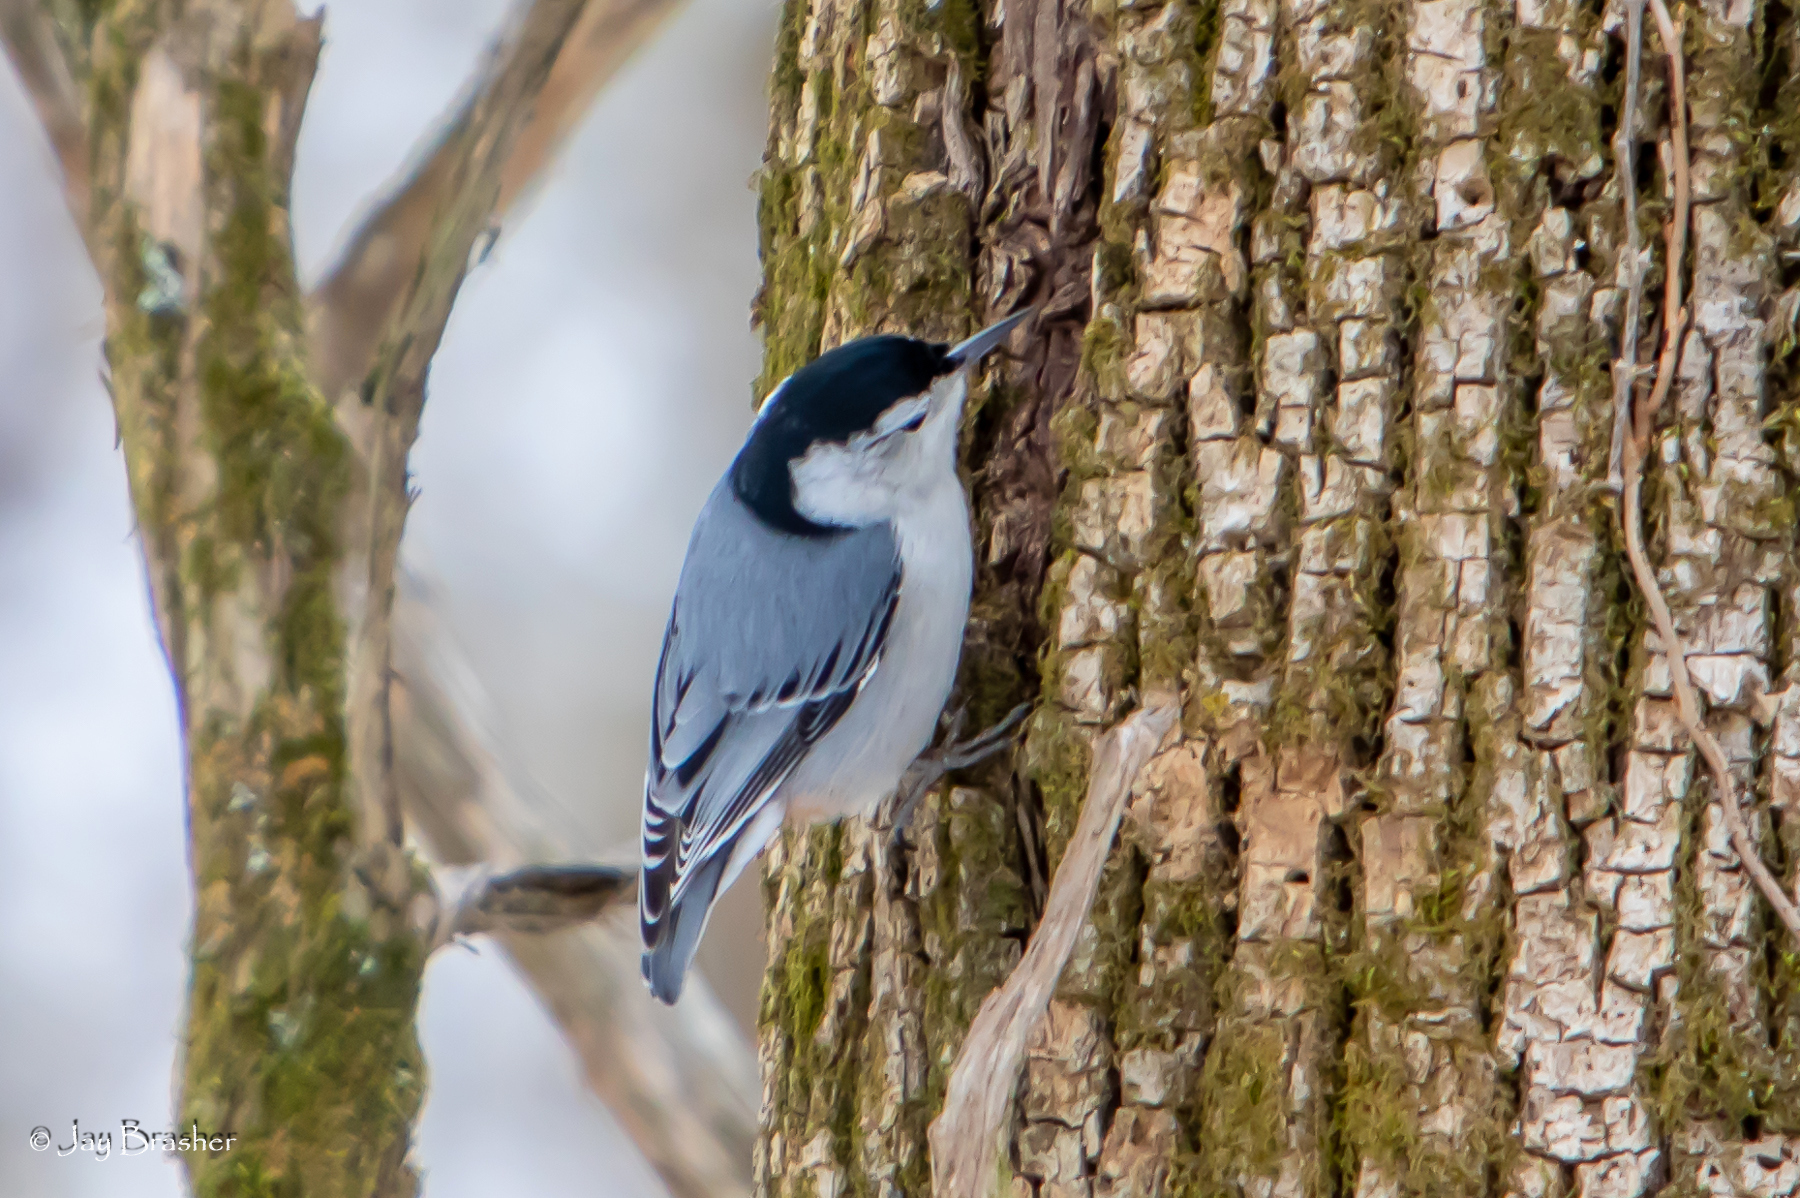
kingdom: Animalia
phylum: Chordata
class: Aves
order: Passeriformes
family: Sittidae
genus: Sitta
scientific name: Sitta carolinensis
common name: White-breasted nuthatch
